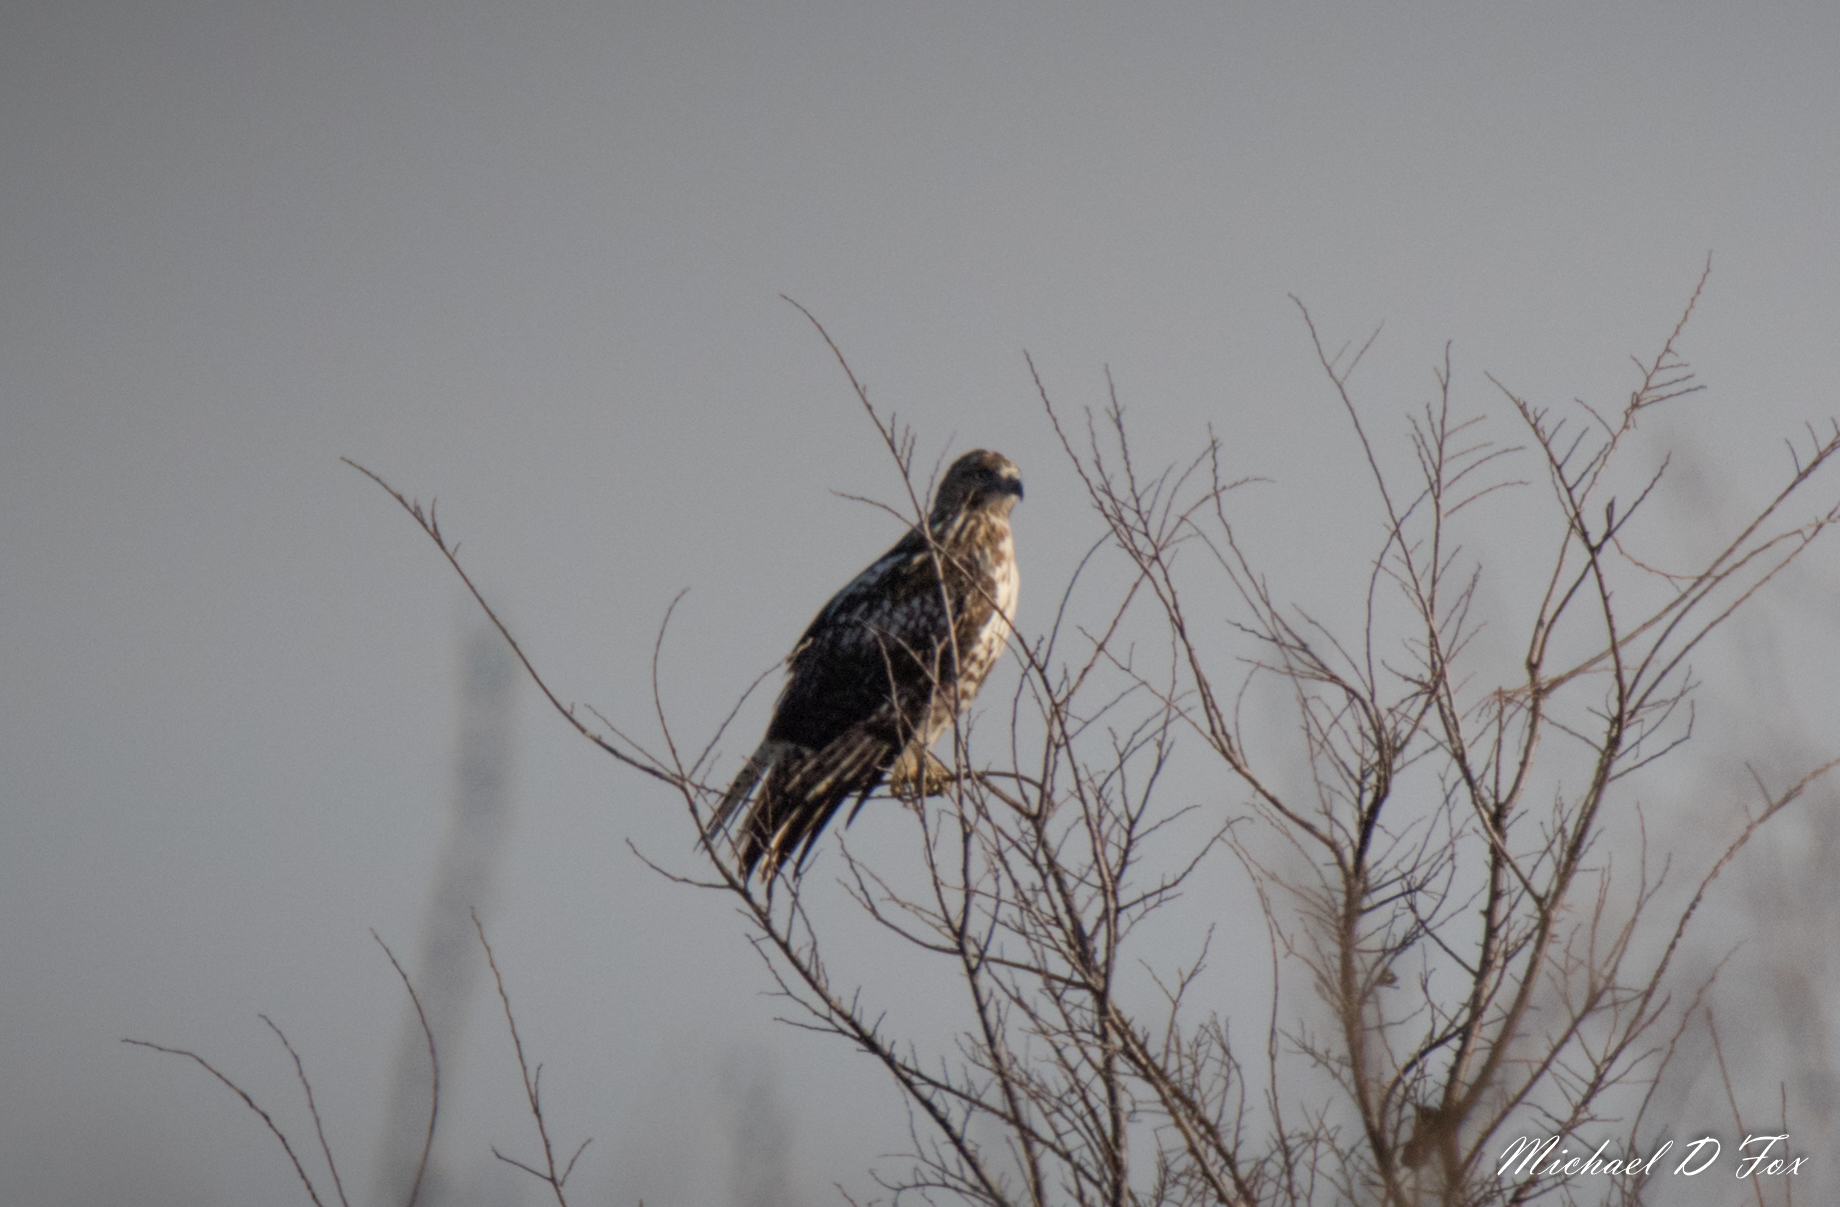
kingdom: Animalia
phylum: Chordata
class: Aves
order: Accipitriformes
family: Accipitridae
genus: Buteo
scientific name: Buteo jamaicensis
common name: Red-tailed hawk
